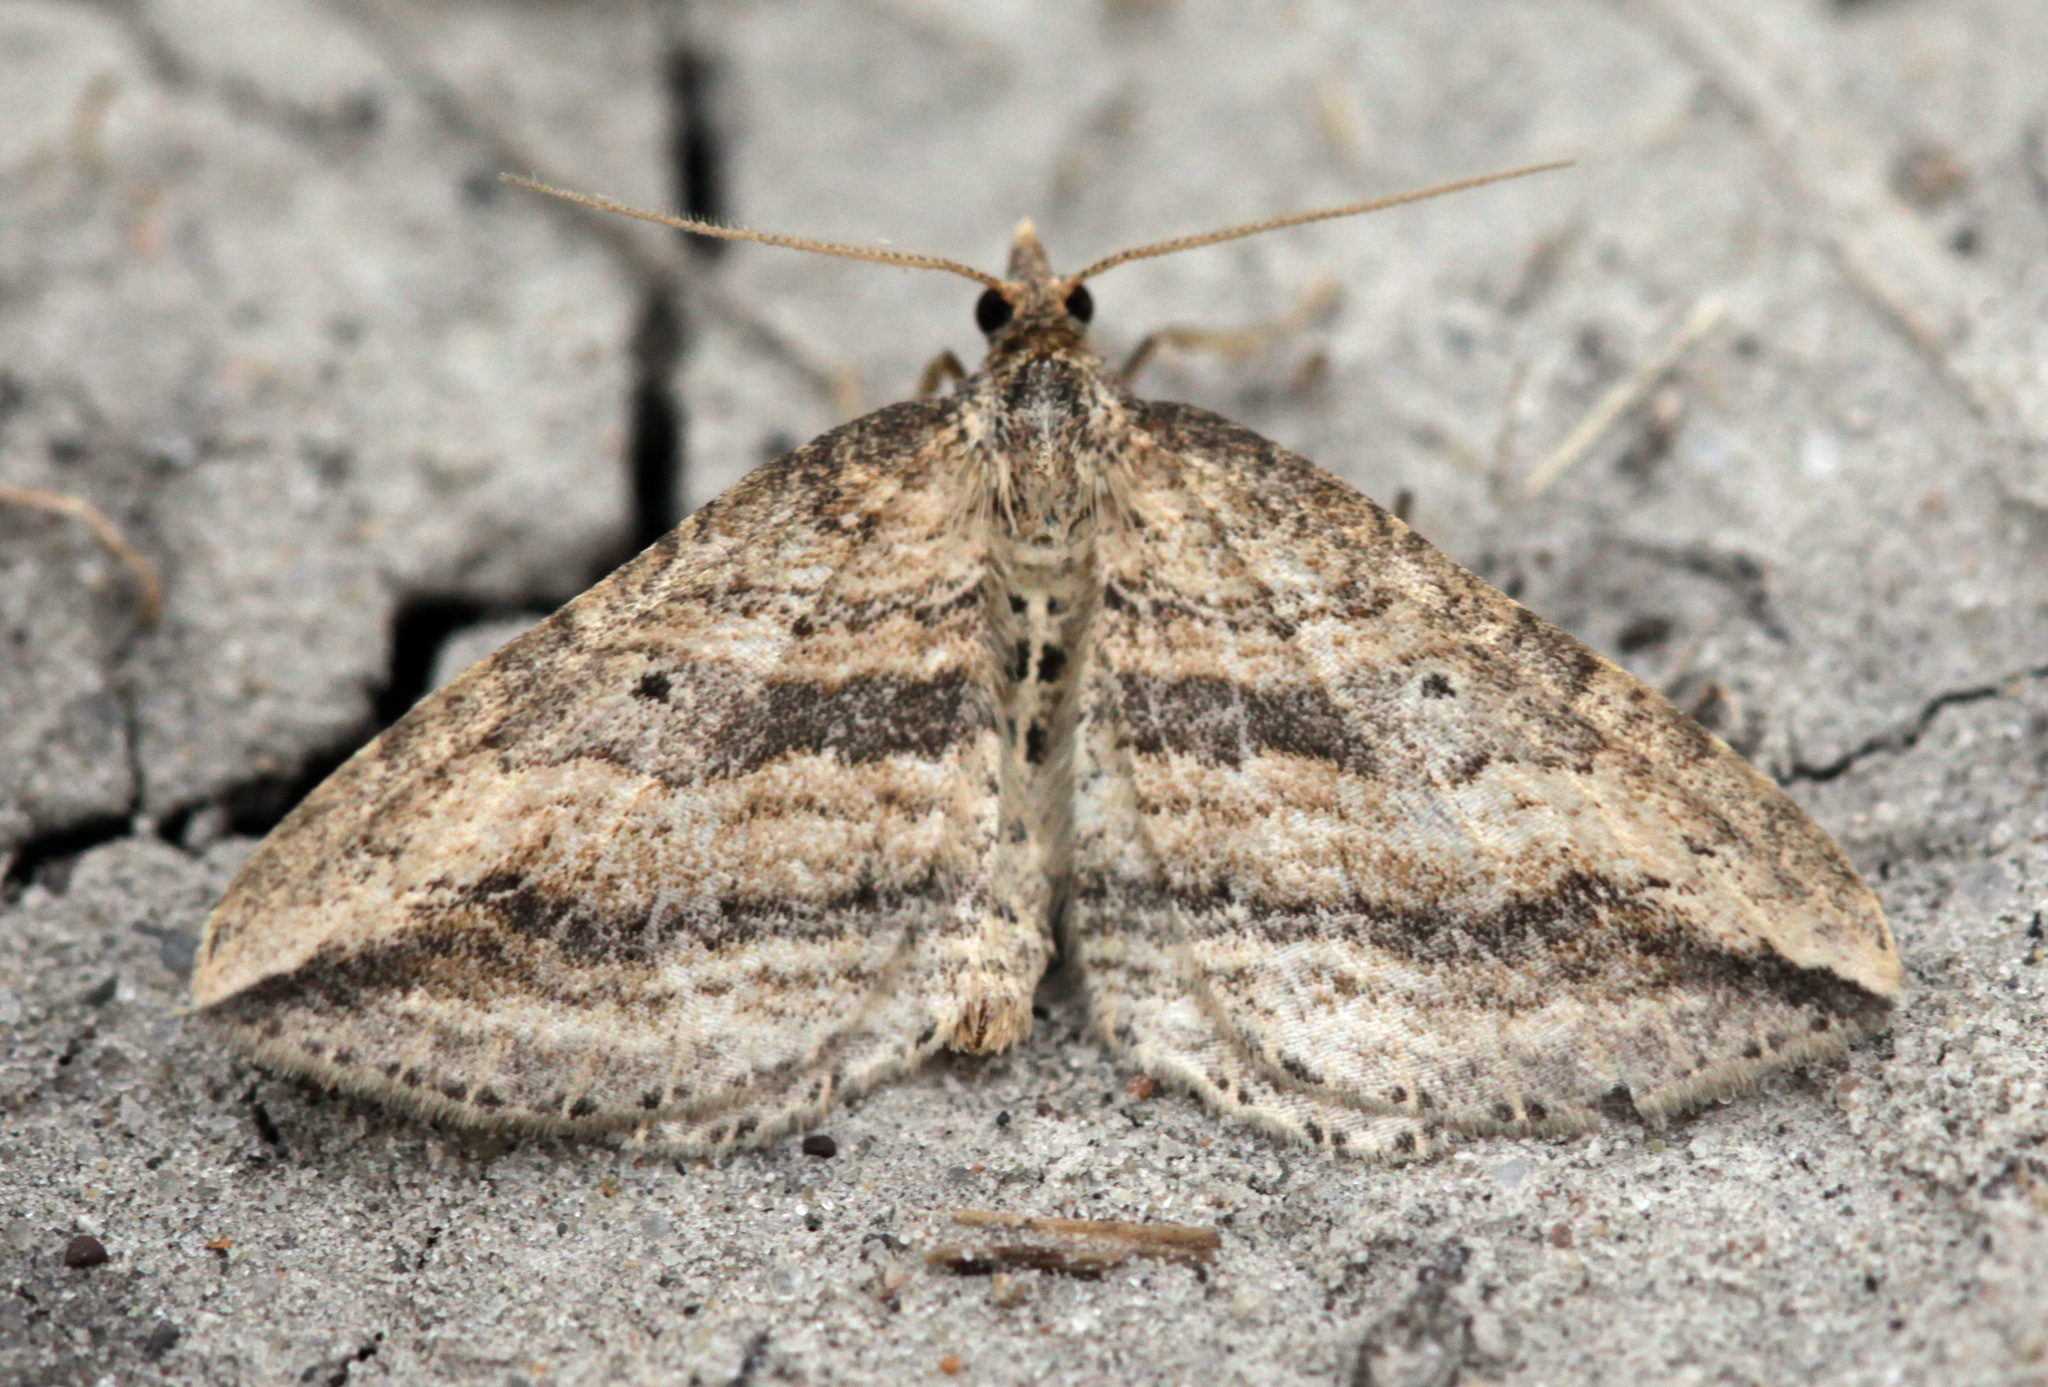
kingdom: Animalia
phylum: Arthropoda
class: Insecta
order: Lepidoptera
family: Geometridae
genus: Orthonama
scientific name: Orthonama vittata
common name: Oblique carpet
